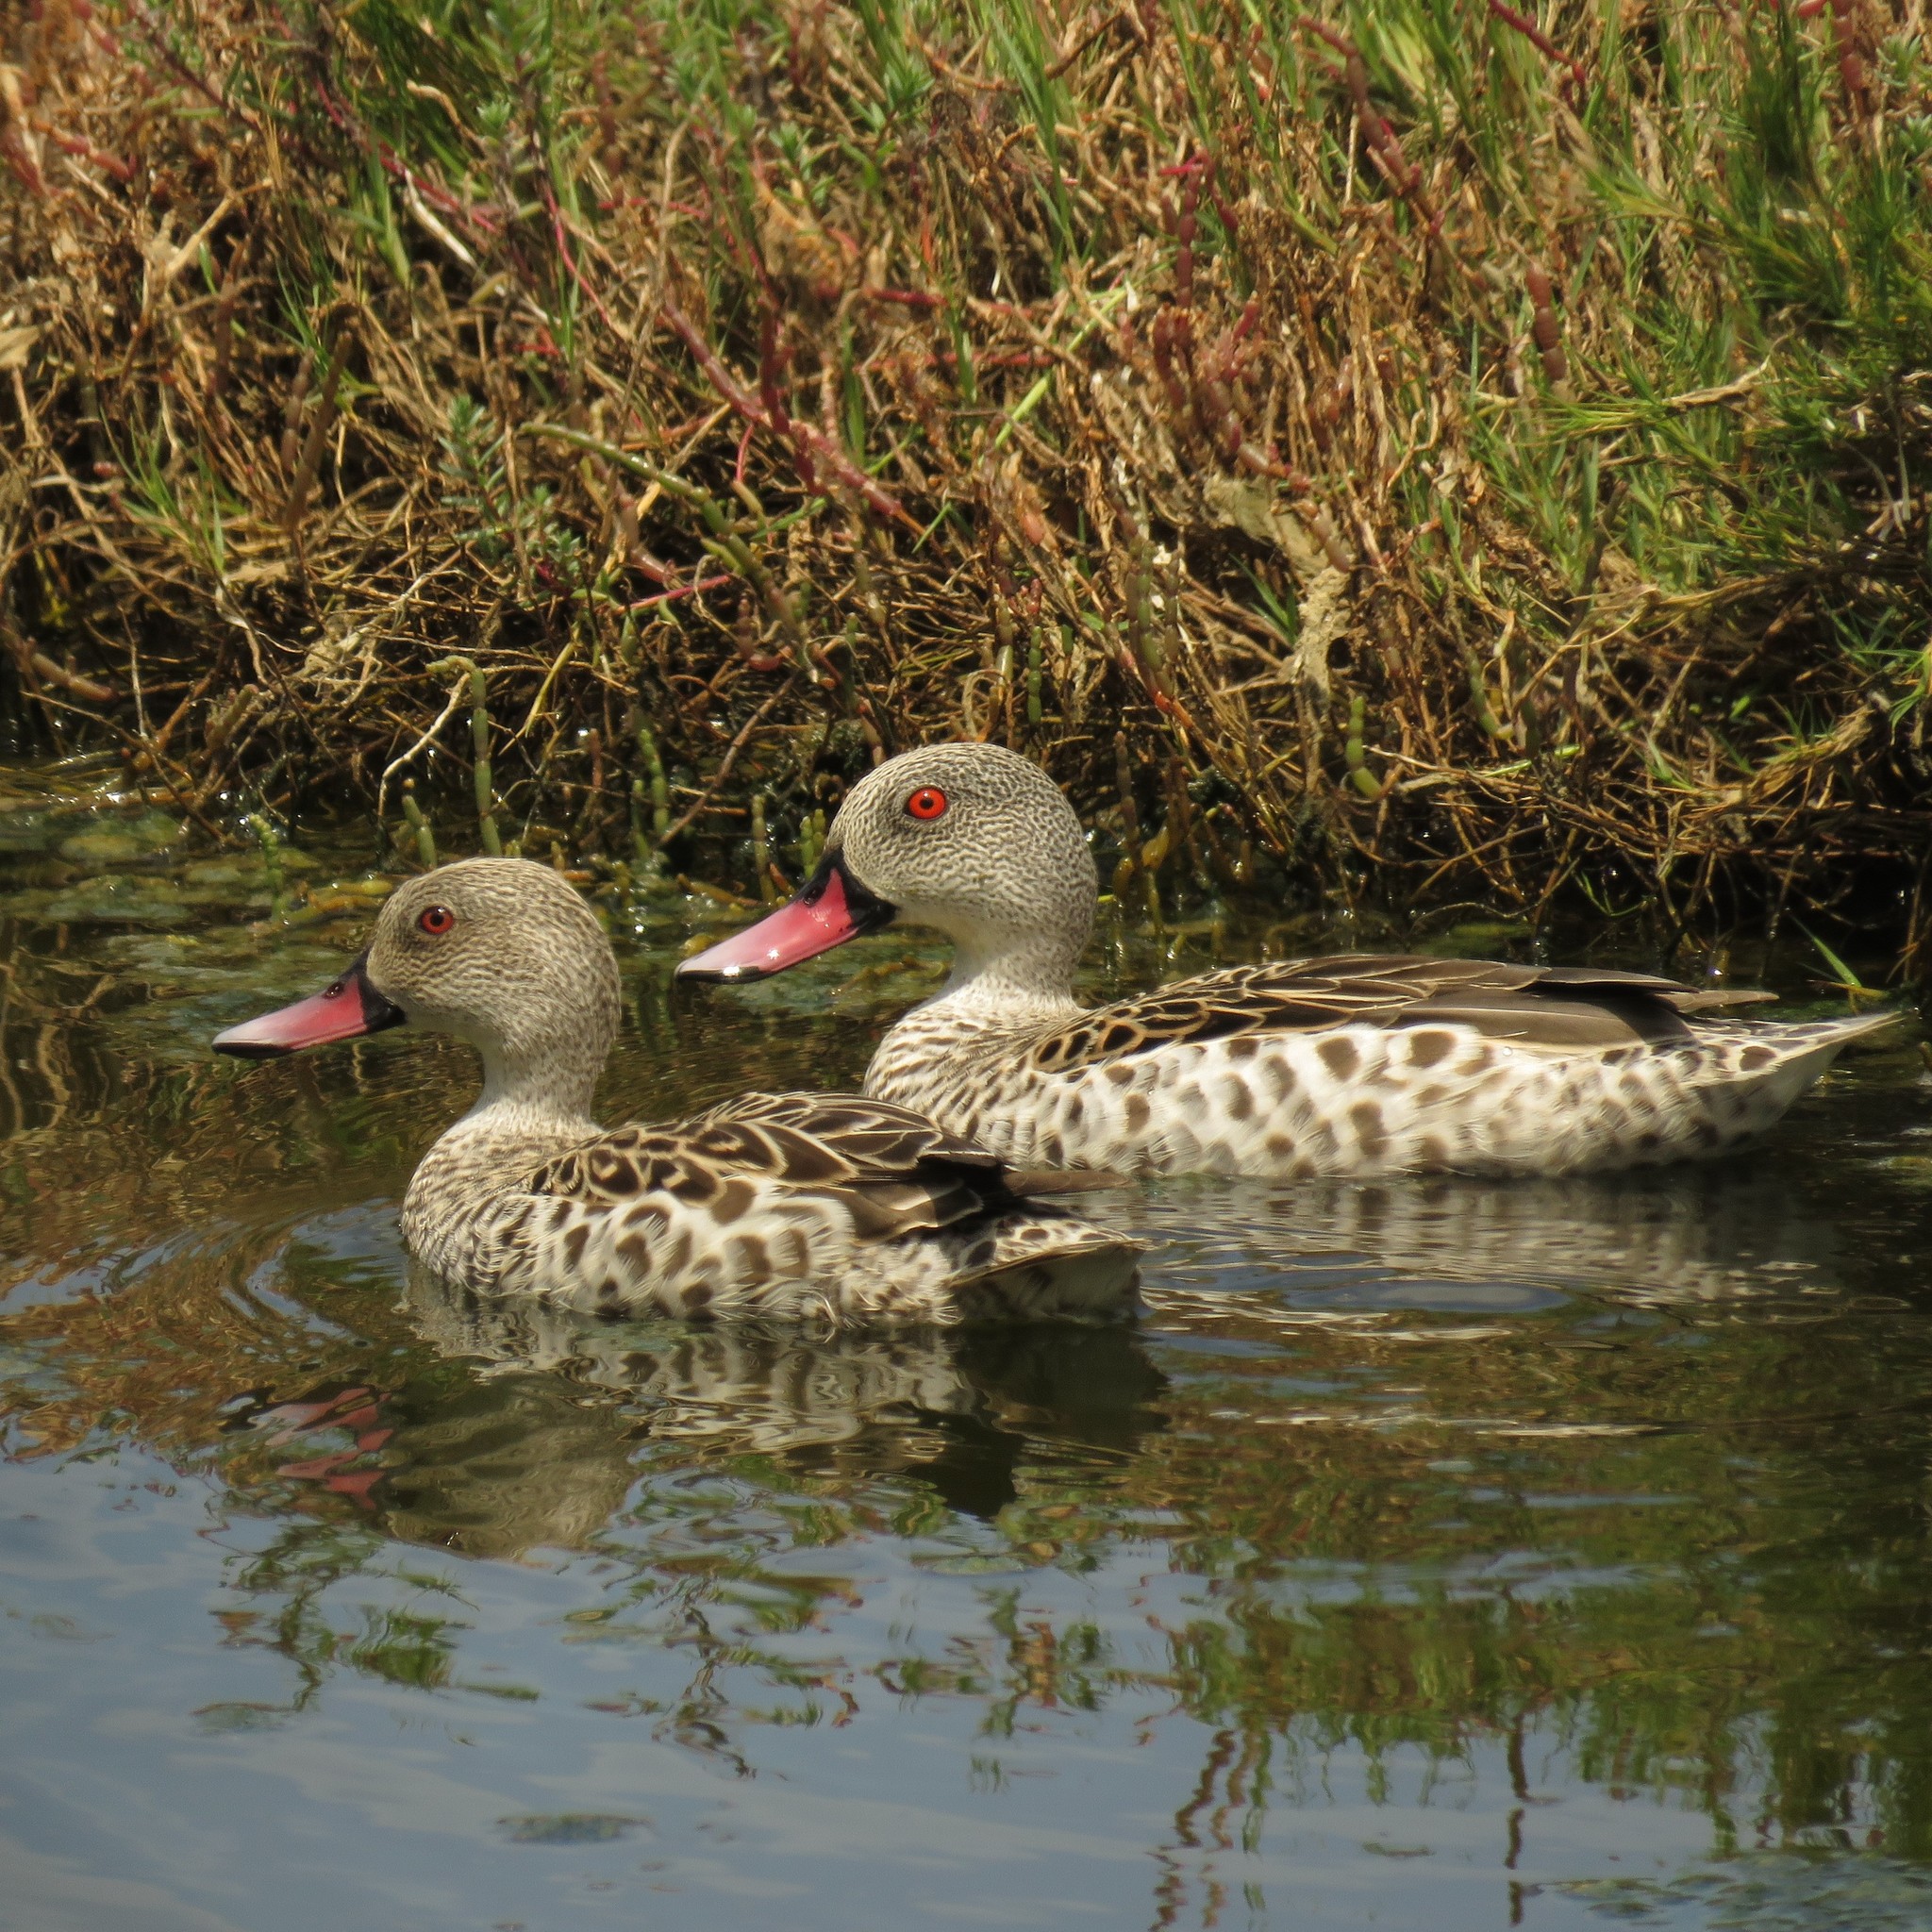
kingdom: Animalia
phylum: Chordata
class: Aves
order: Anseriformes
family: Anatidae
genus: Anas
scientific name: Anas capensis
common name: Cape teal
